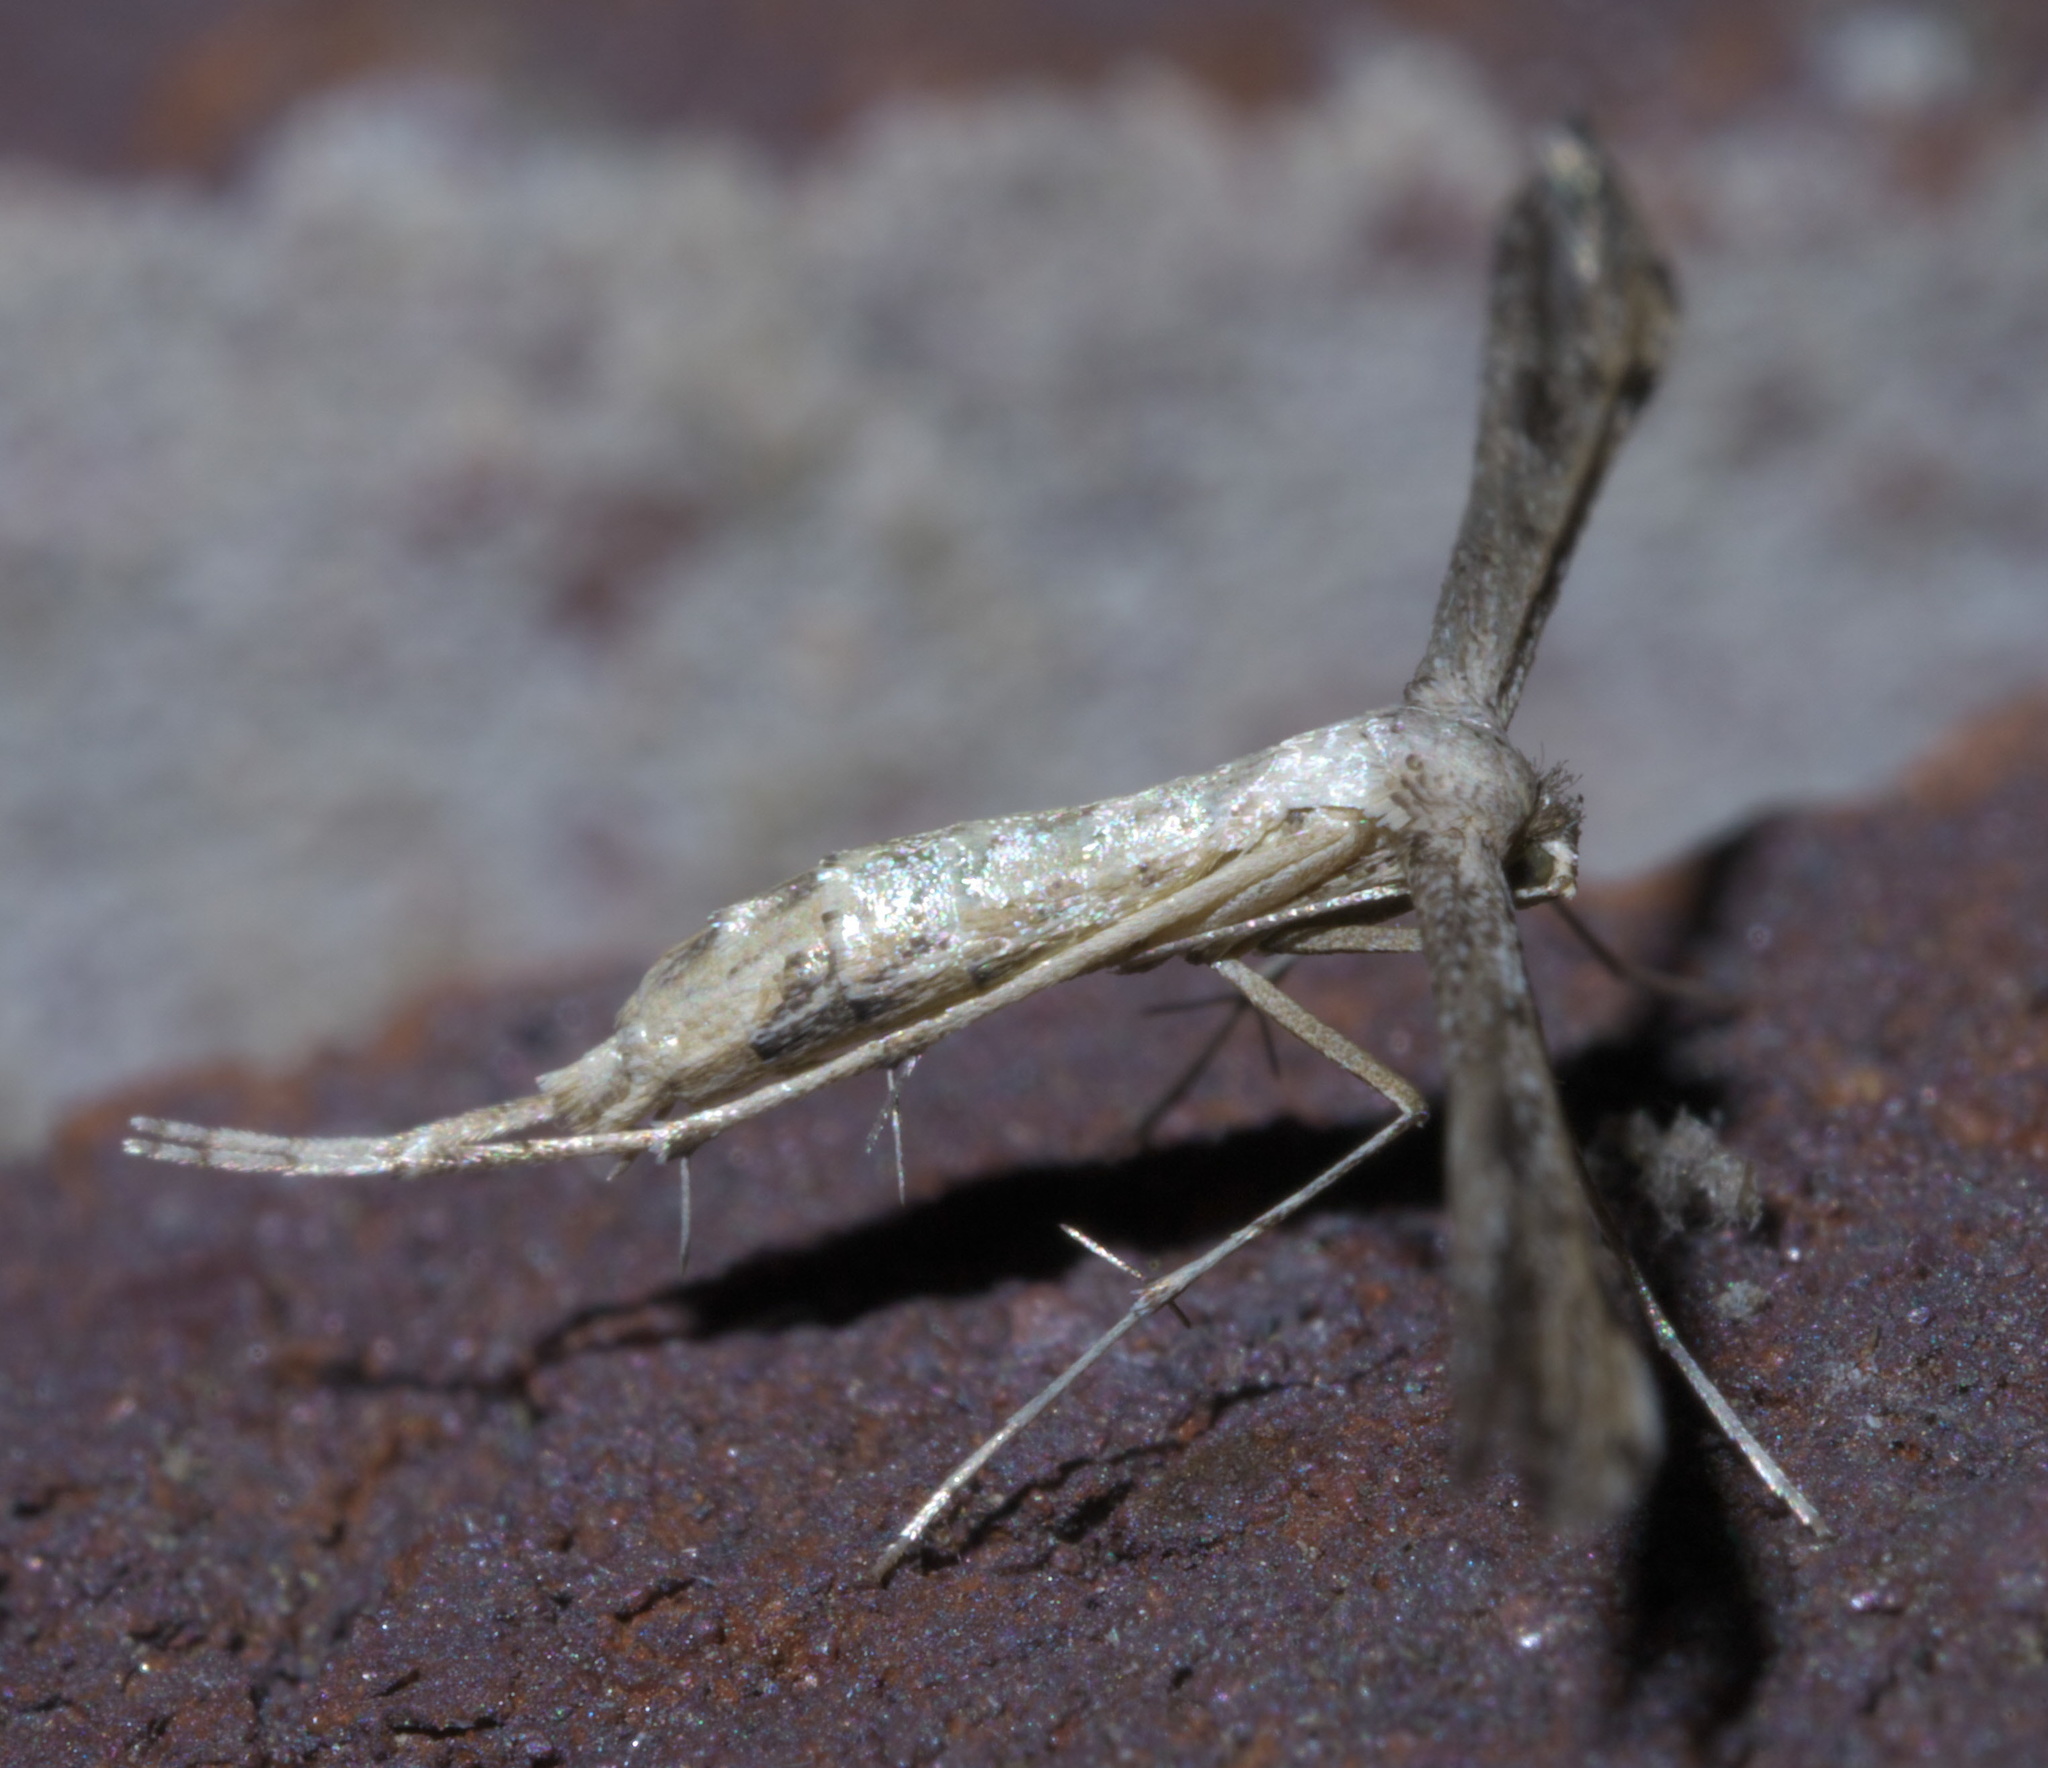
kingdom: Animalia
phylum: Arthropoda
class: Insecta
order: Lepidoptera
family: Pterophoridae
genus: Adaina
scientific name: Adaina ambrosiae
